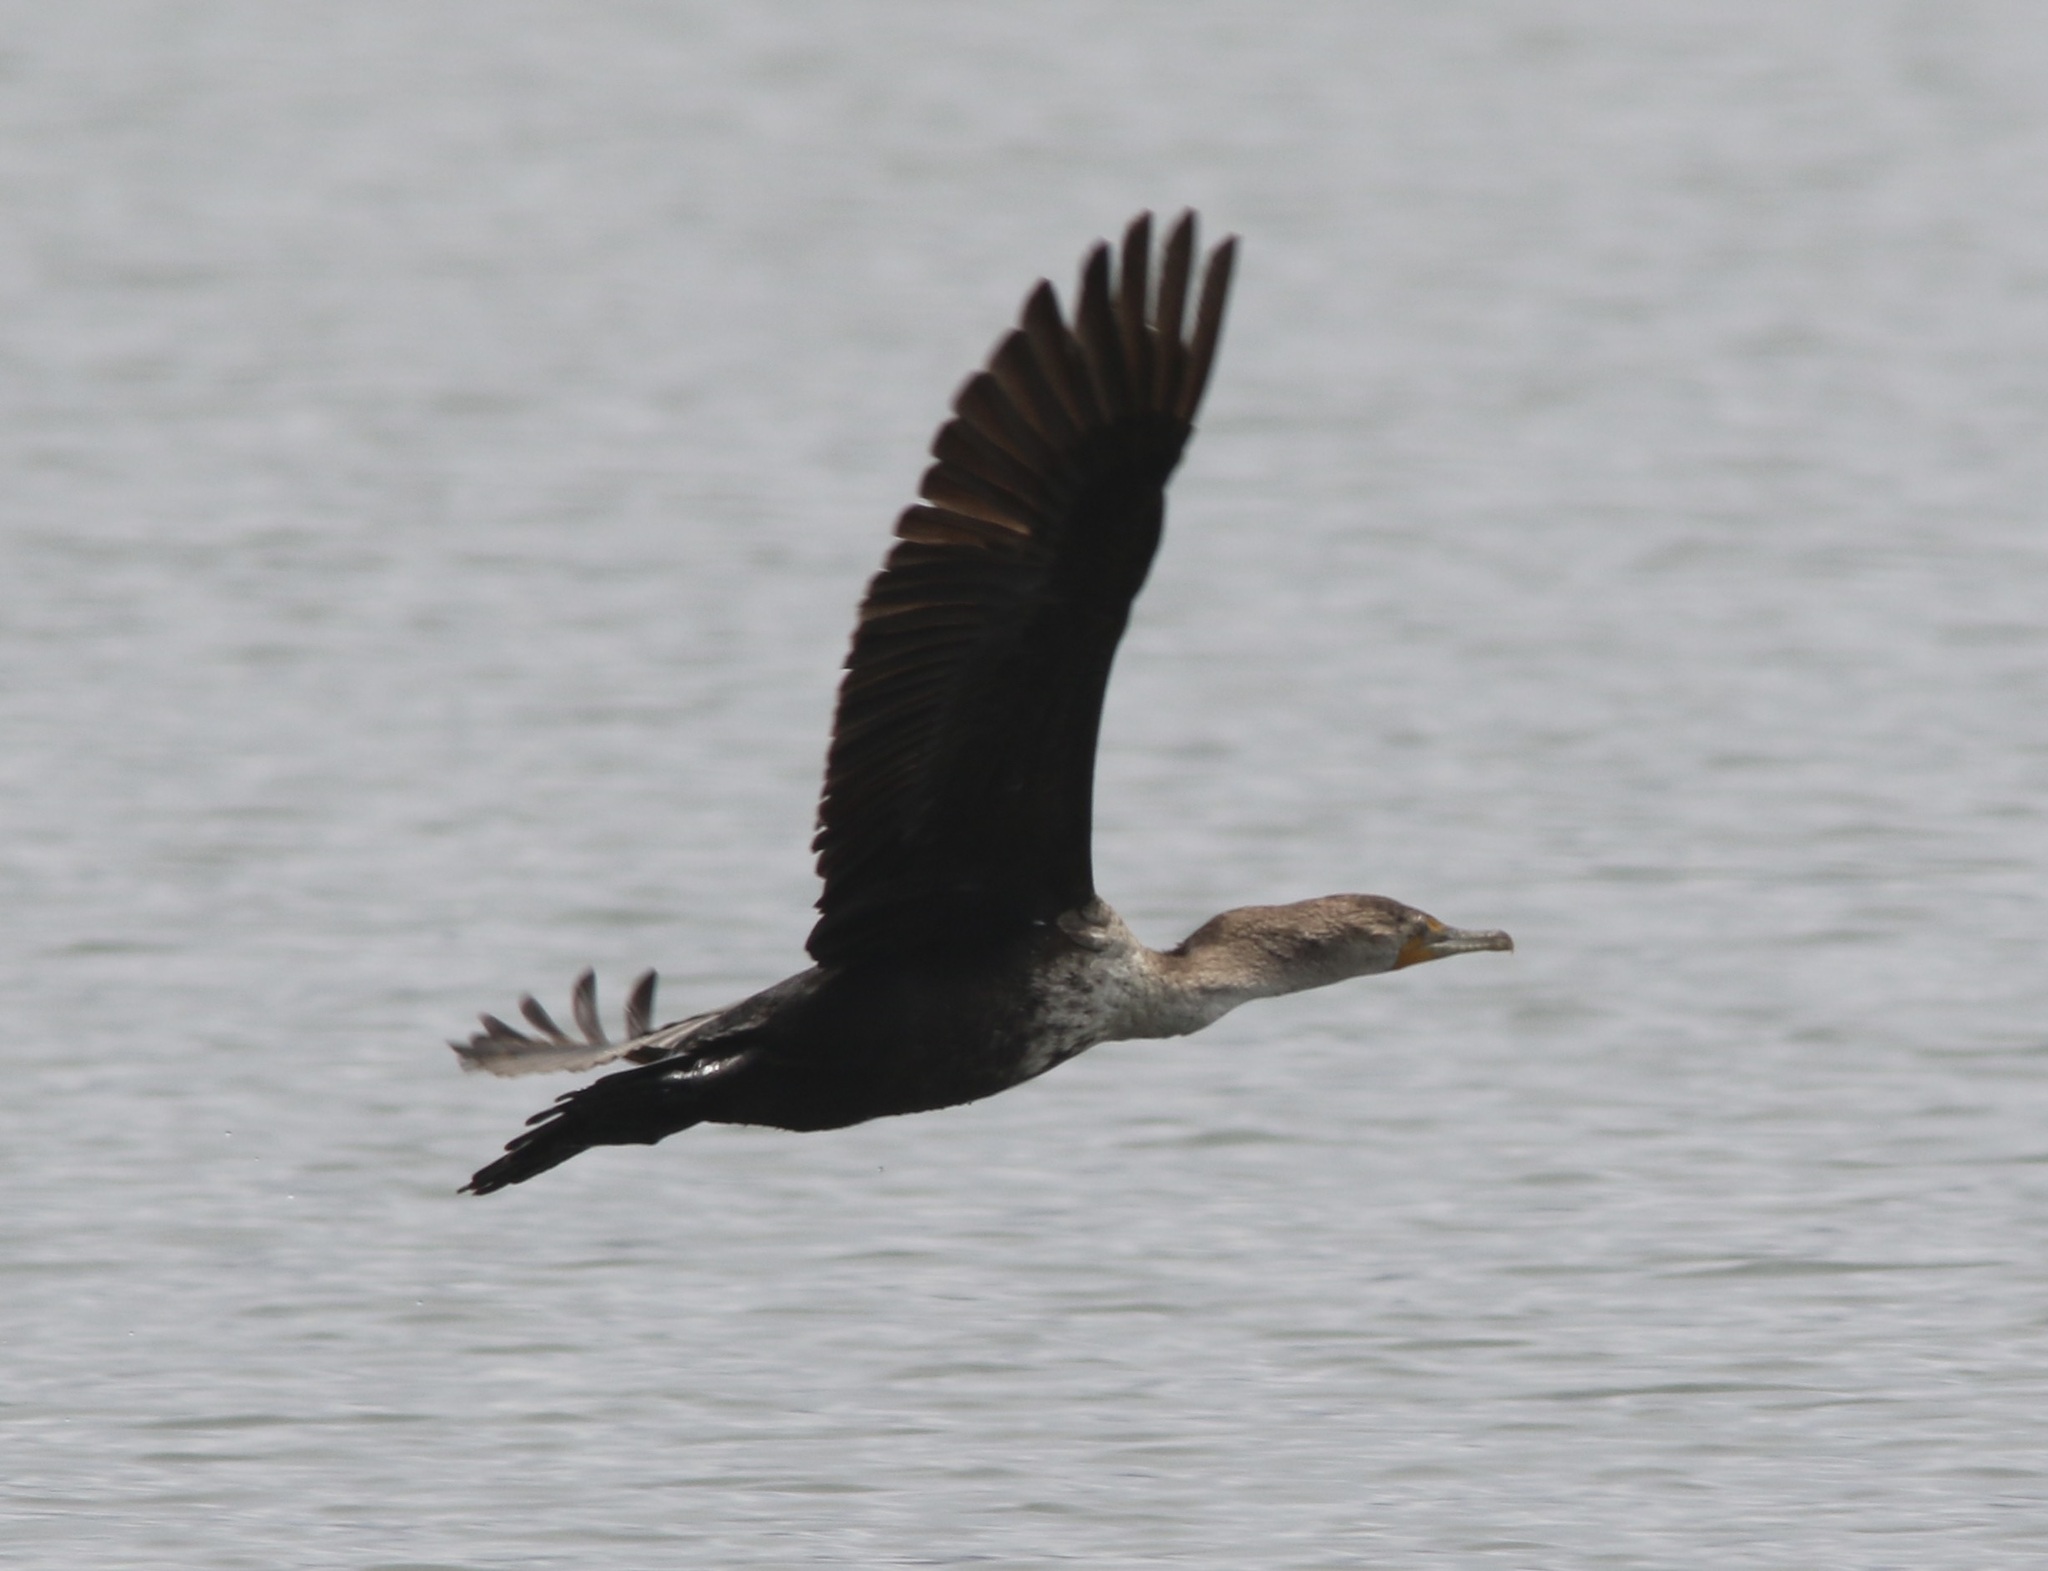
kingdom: Animalia
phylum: Chordata
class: Aves
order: Suliformes
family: Phalacrocoracidae
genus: Phalacrocorax
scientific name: Phalacrocorax auritus
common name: Double-crested cormorant
